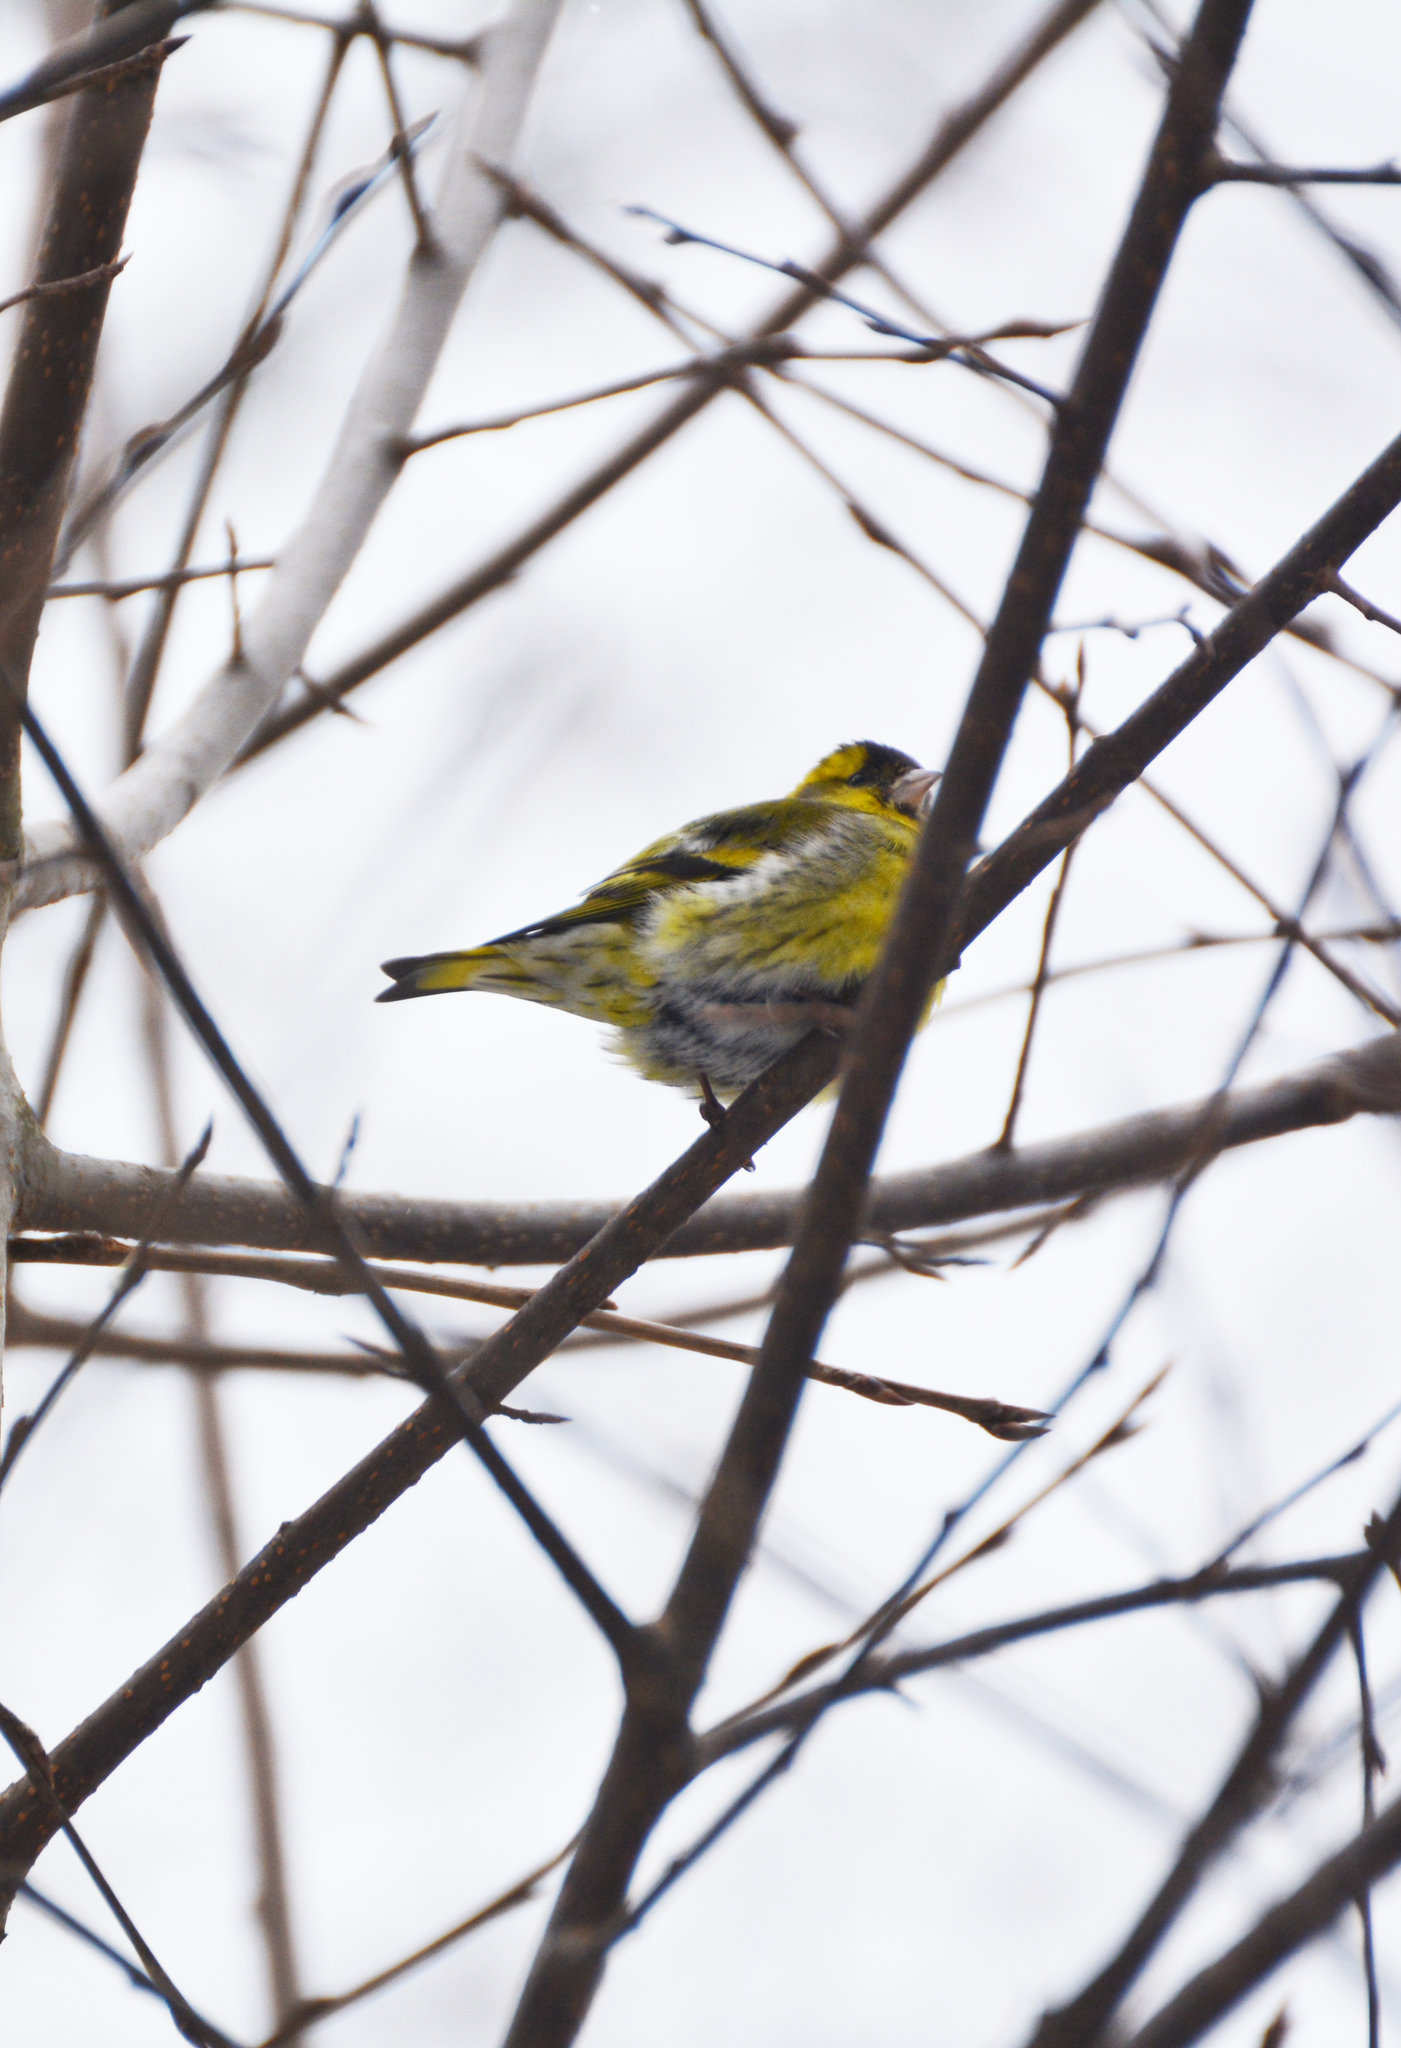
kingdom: Animalia
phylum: Chordata
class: Aves
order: Passeriformes
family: Fringillidae
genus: Spinus
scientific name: Spinus spinus
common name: Eurasian siskin
